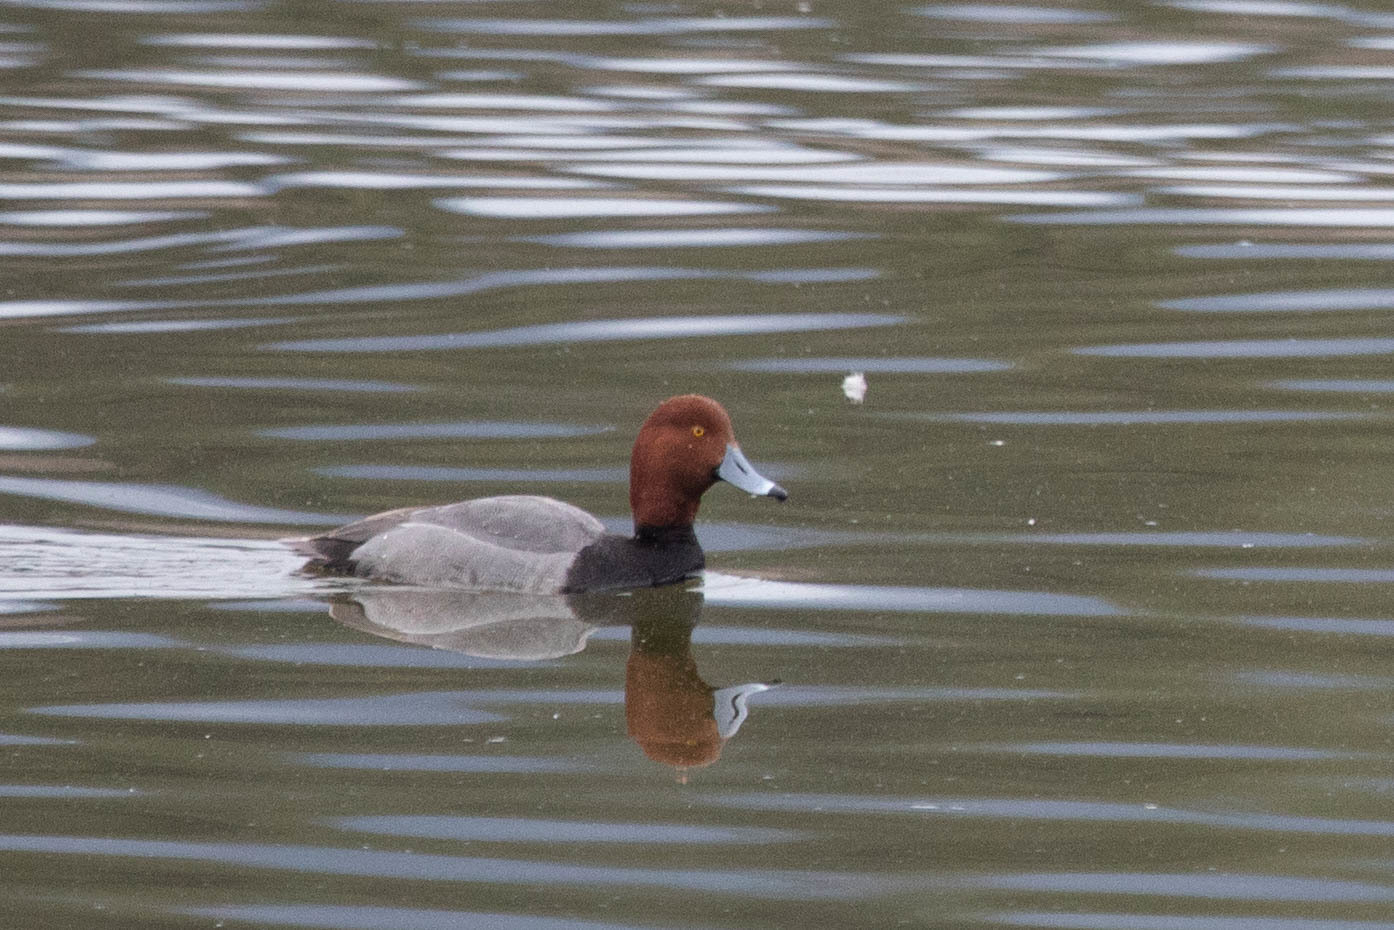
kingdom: Animalia
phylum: Chordata
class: Aves
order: Anseriformes
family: Anatidae
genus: Aythya
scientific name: Aythya americana
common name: Redhead
